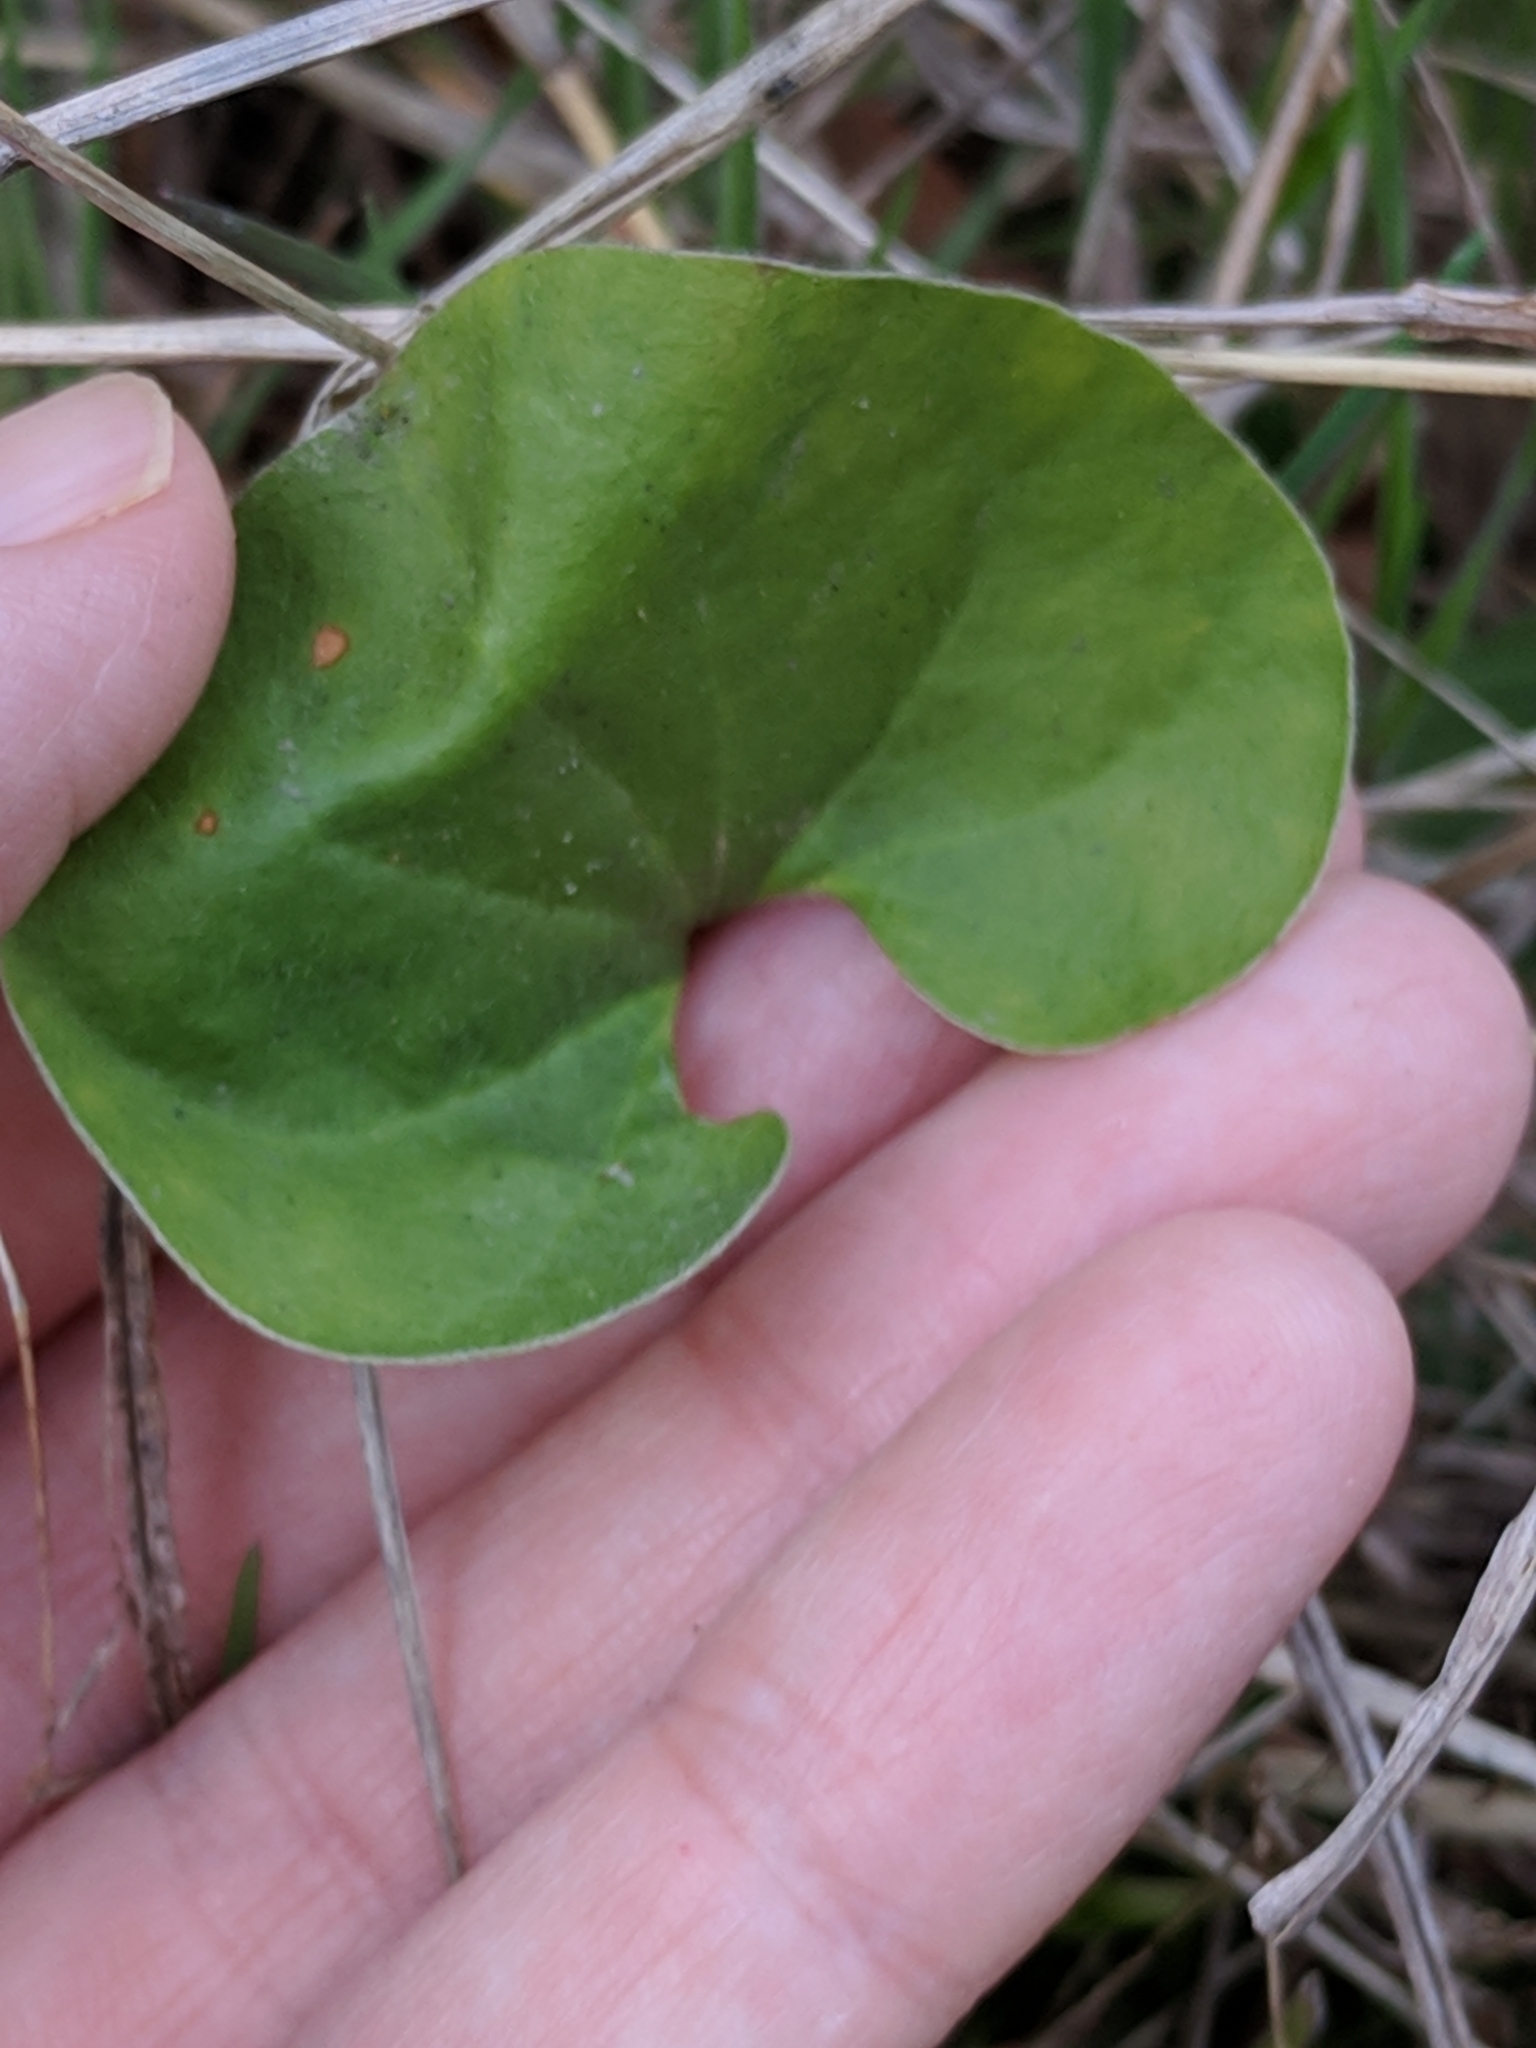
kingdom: Plantae
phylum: Tracheophyta
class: Magnoliopsida
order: Solanales
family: Convolvulaceae
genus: Dichondra
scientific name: Dichondra recurvata
